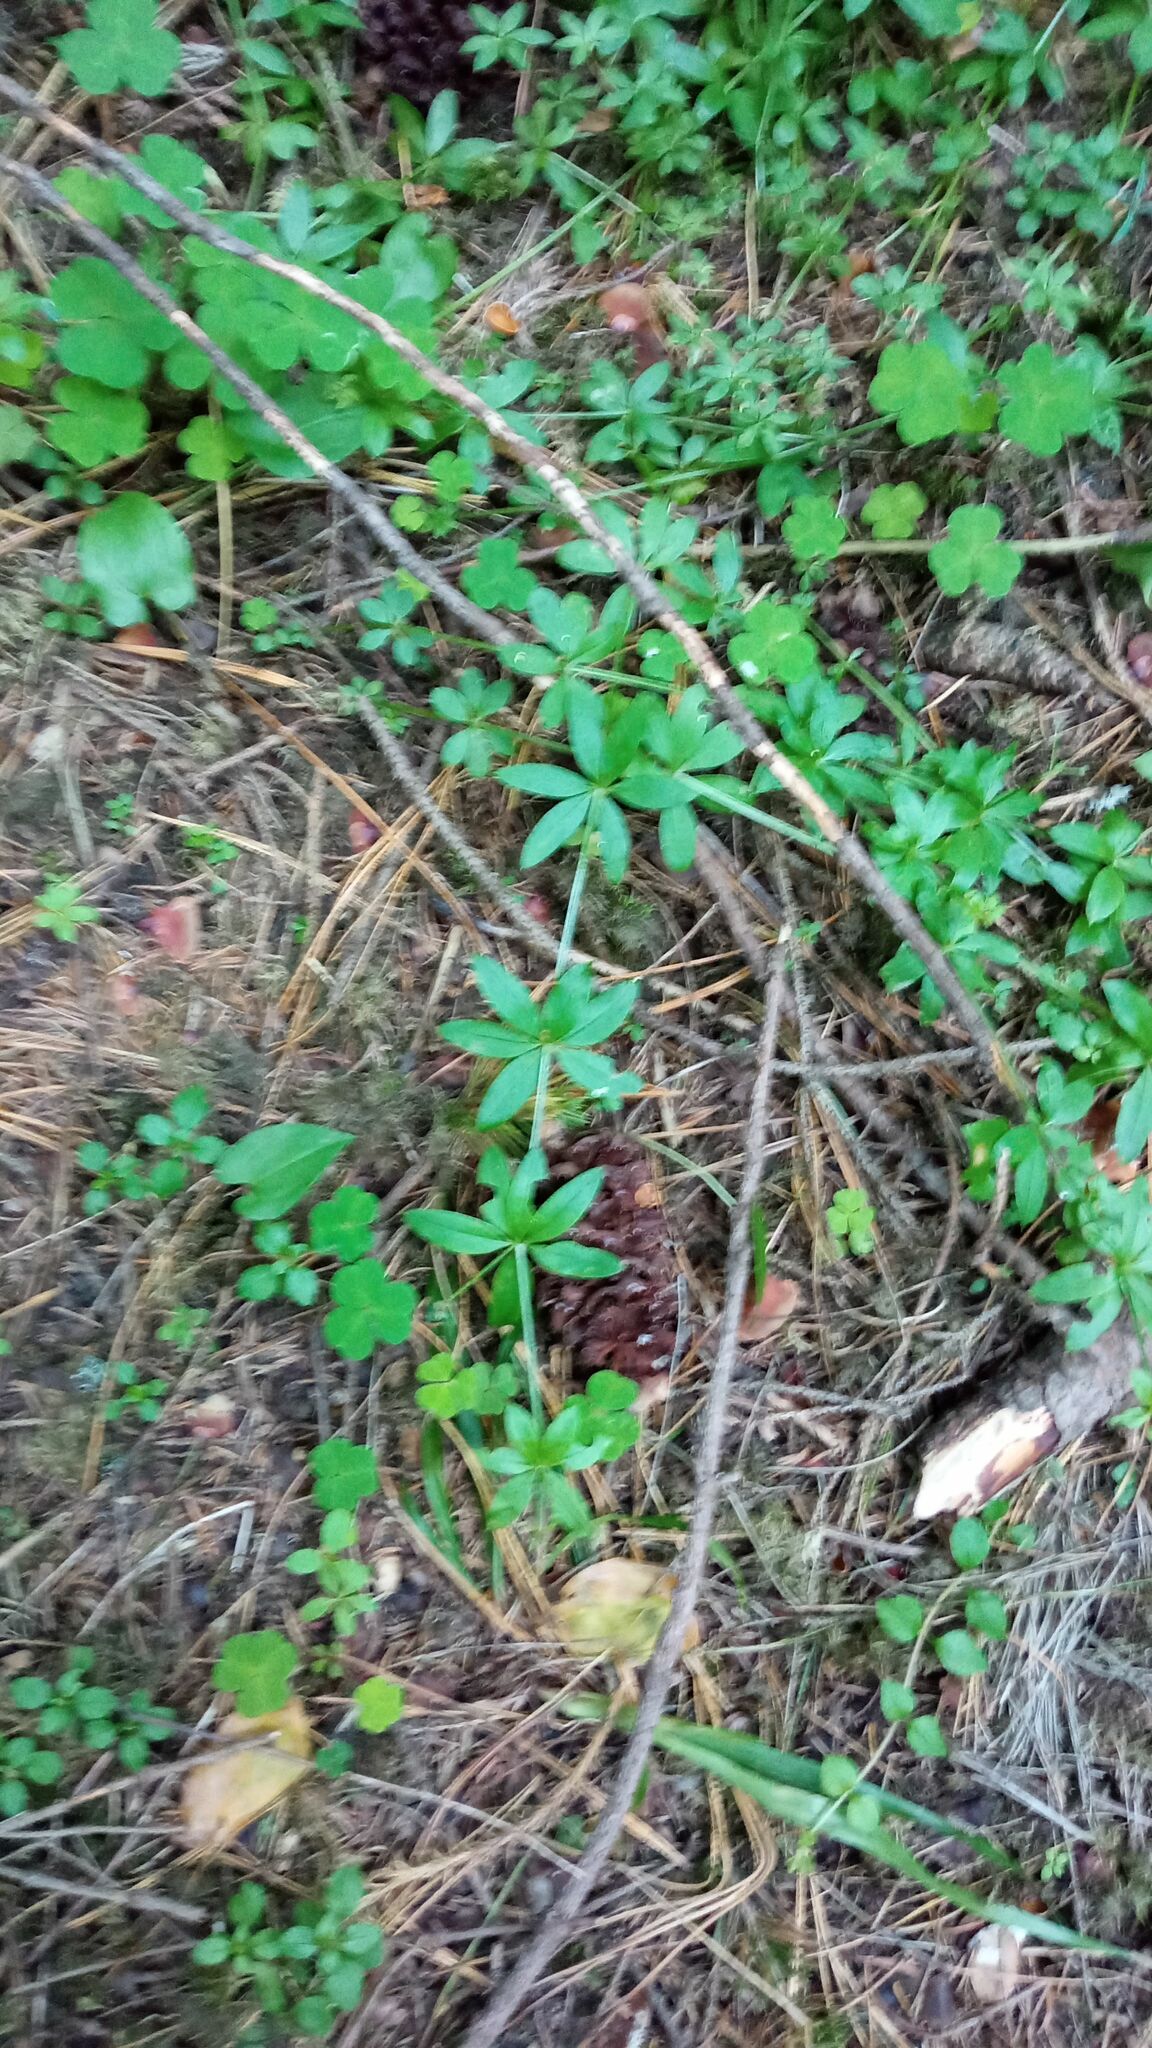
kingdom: Plantae
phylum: Tracheophyta
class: Magnoliopsida
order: Gentianales
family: Rubiaceae
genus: Galium
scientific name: Galium triflorum
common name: Fragrant bedstraw
